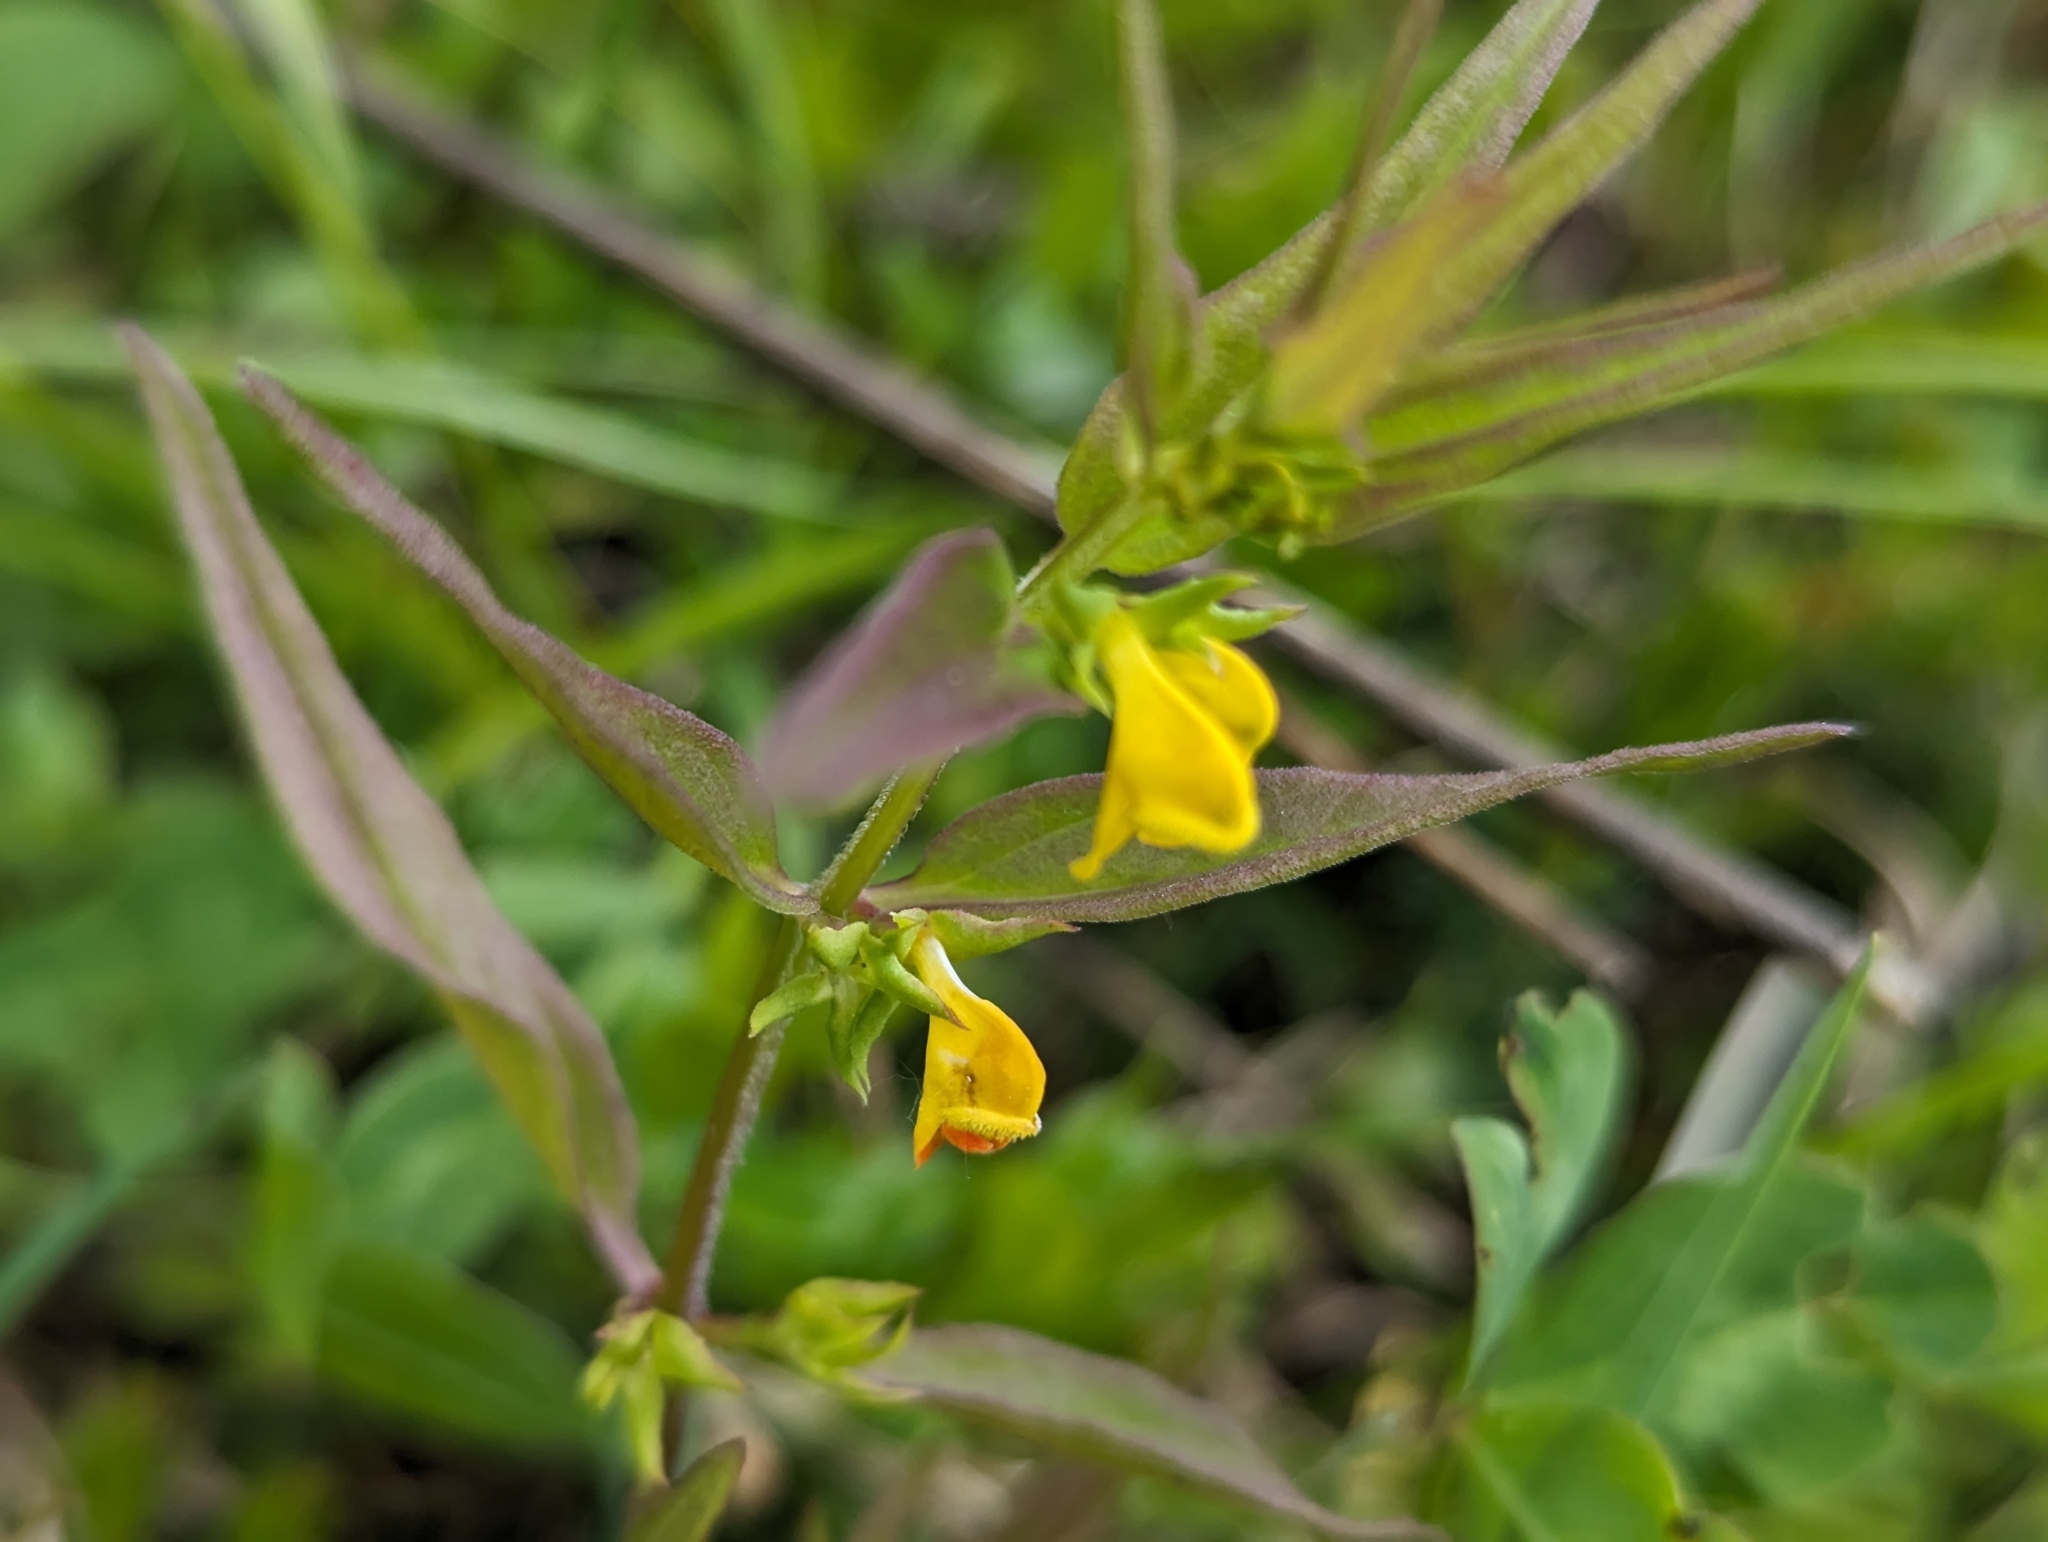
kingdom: Plantae
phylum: Tracheophyta
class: Magnoliopsida
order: Lamiales
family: Orobanchaceae
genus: Melampyrum
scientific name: Melampyrum sylvaticum
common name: Small cow-wheat
